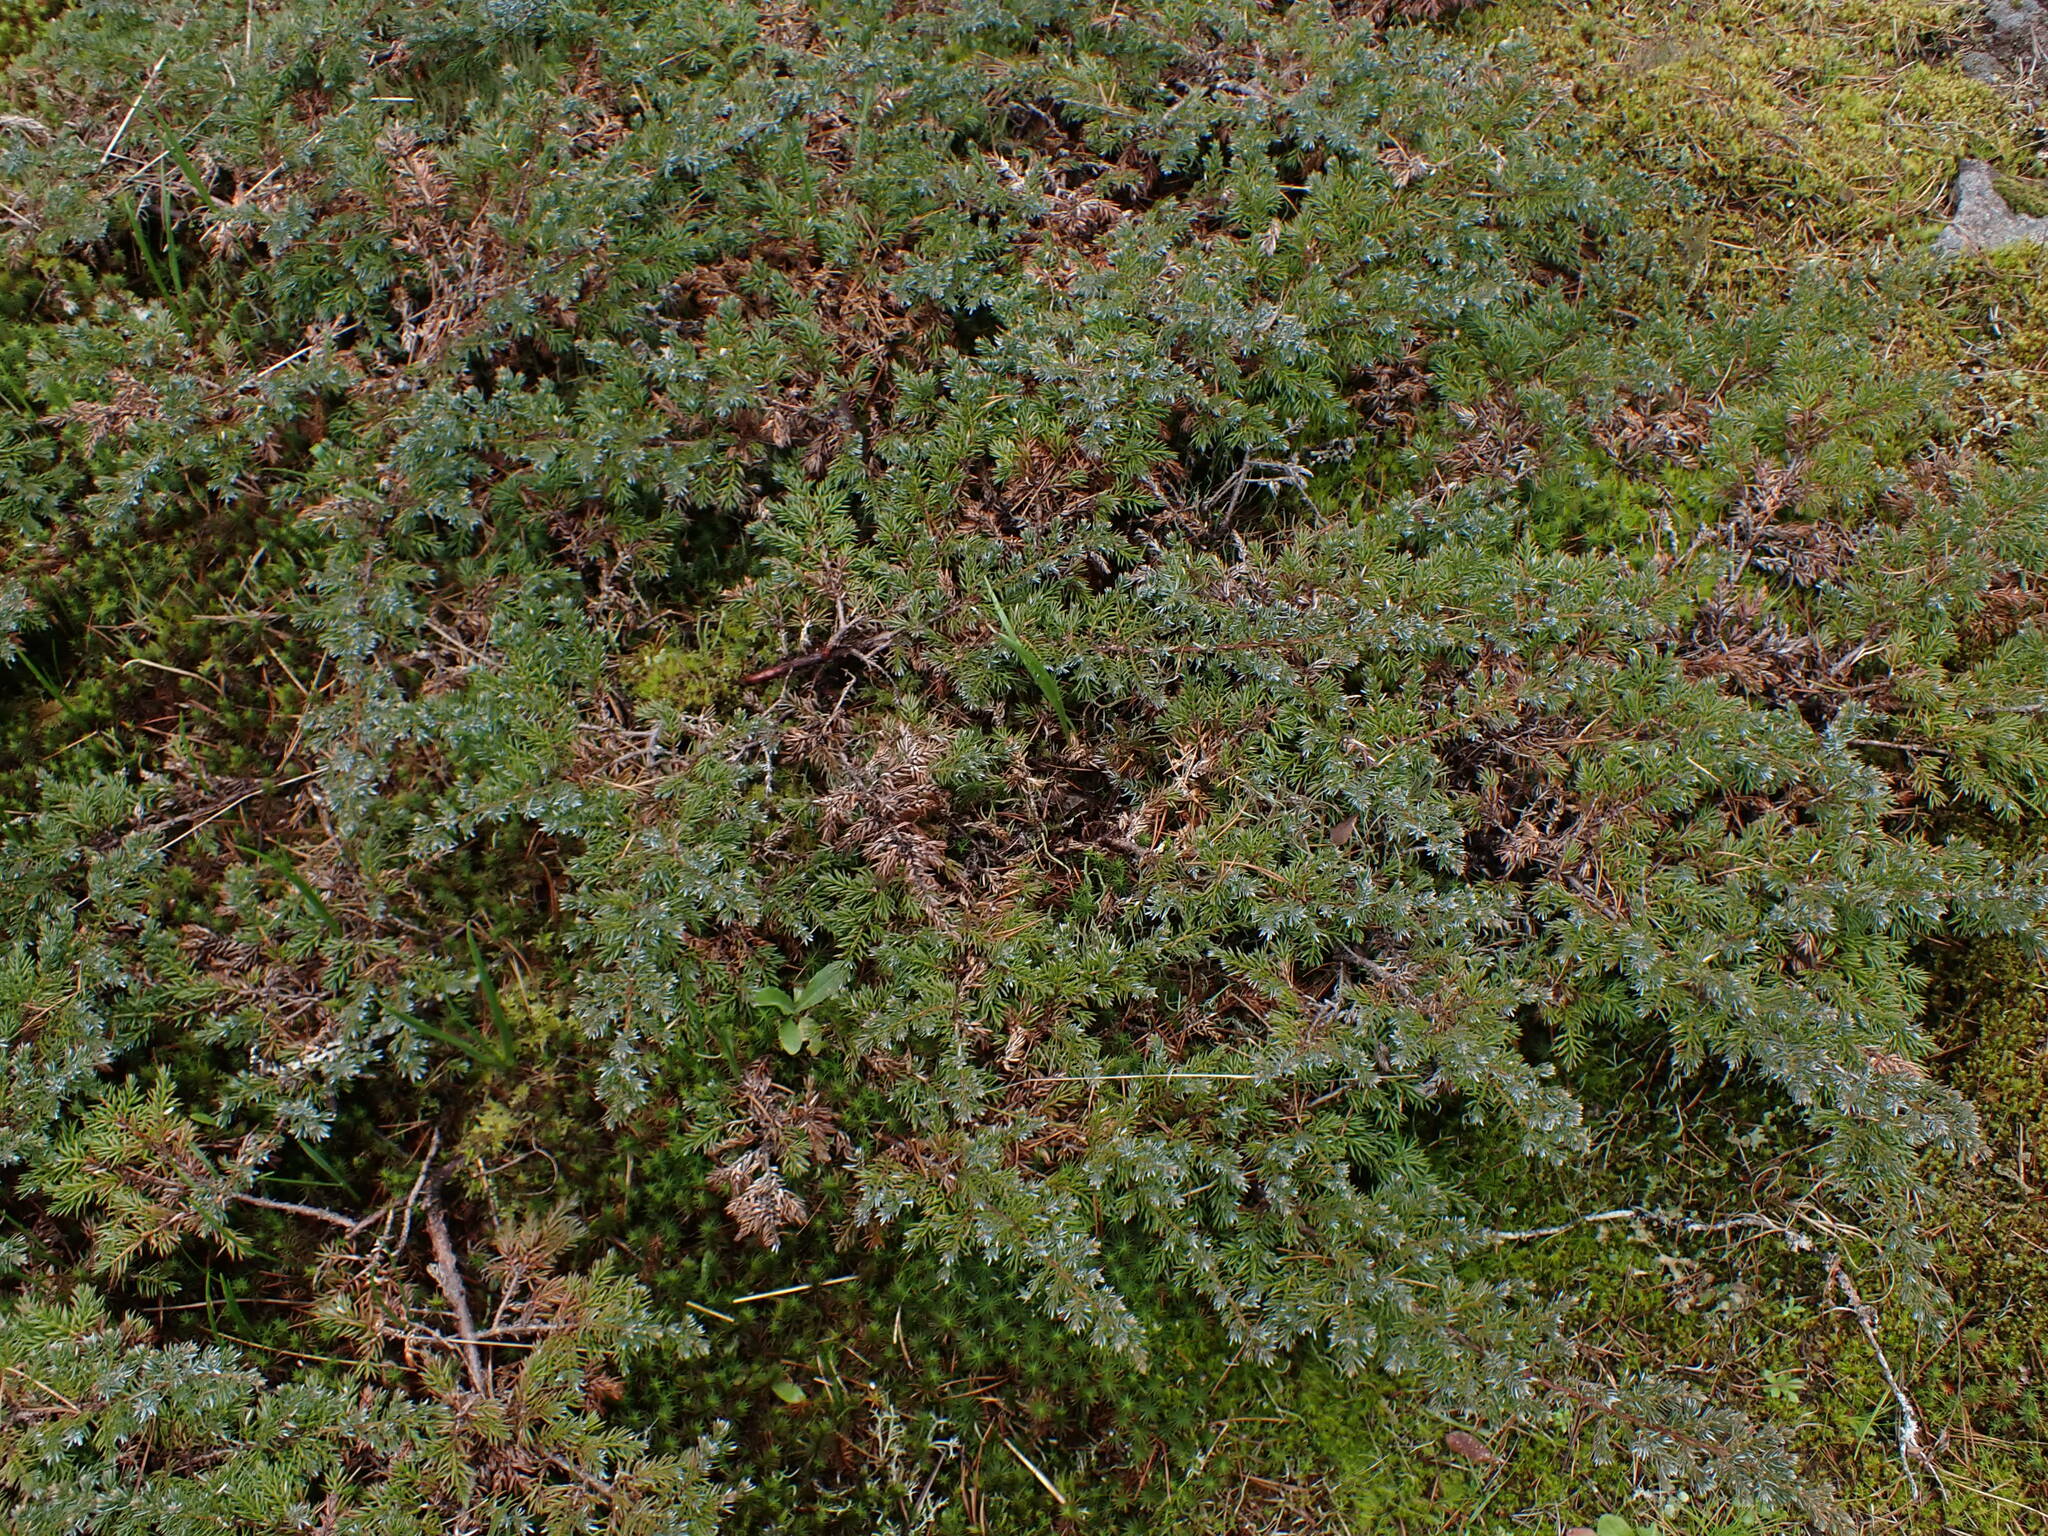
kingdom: Plantae
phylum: Tracheophyta
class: Pinopsida
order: Pinales
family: Cupressaceae
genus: Juniperus
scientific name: Juniperus communis
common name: Common juniper
